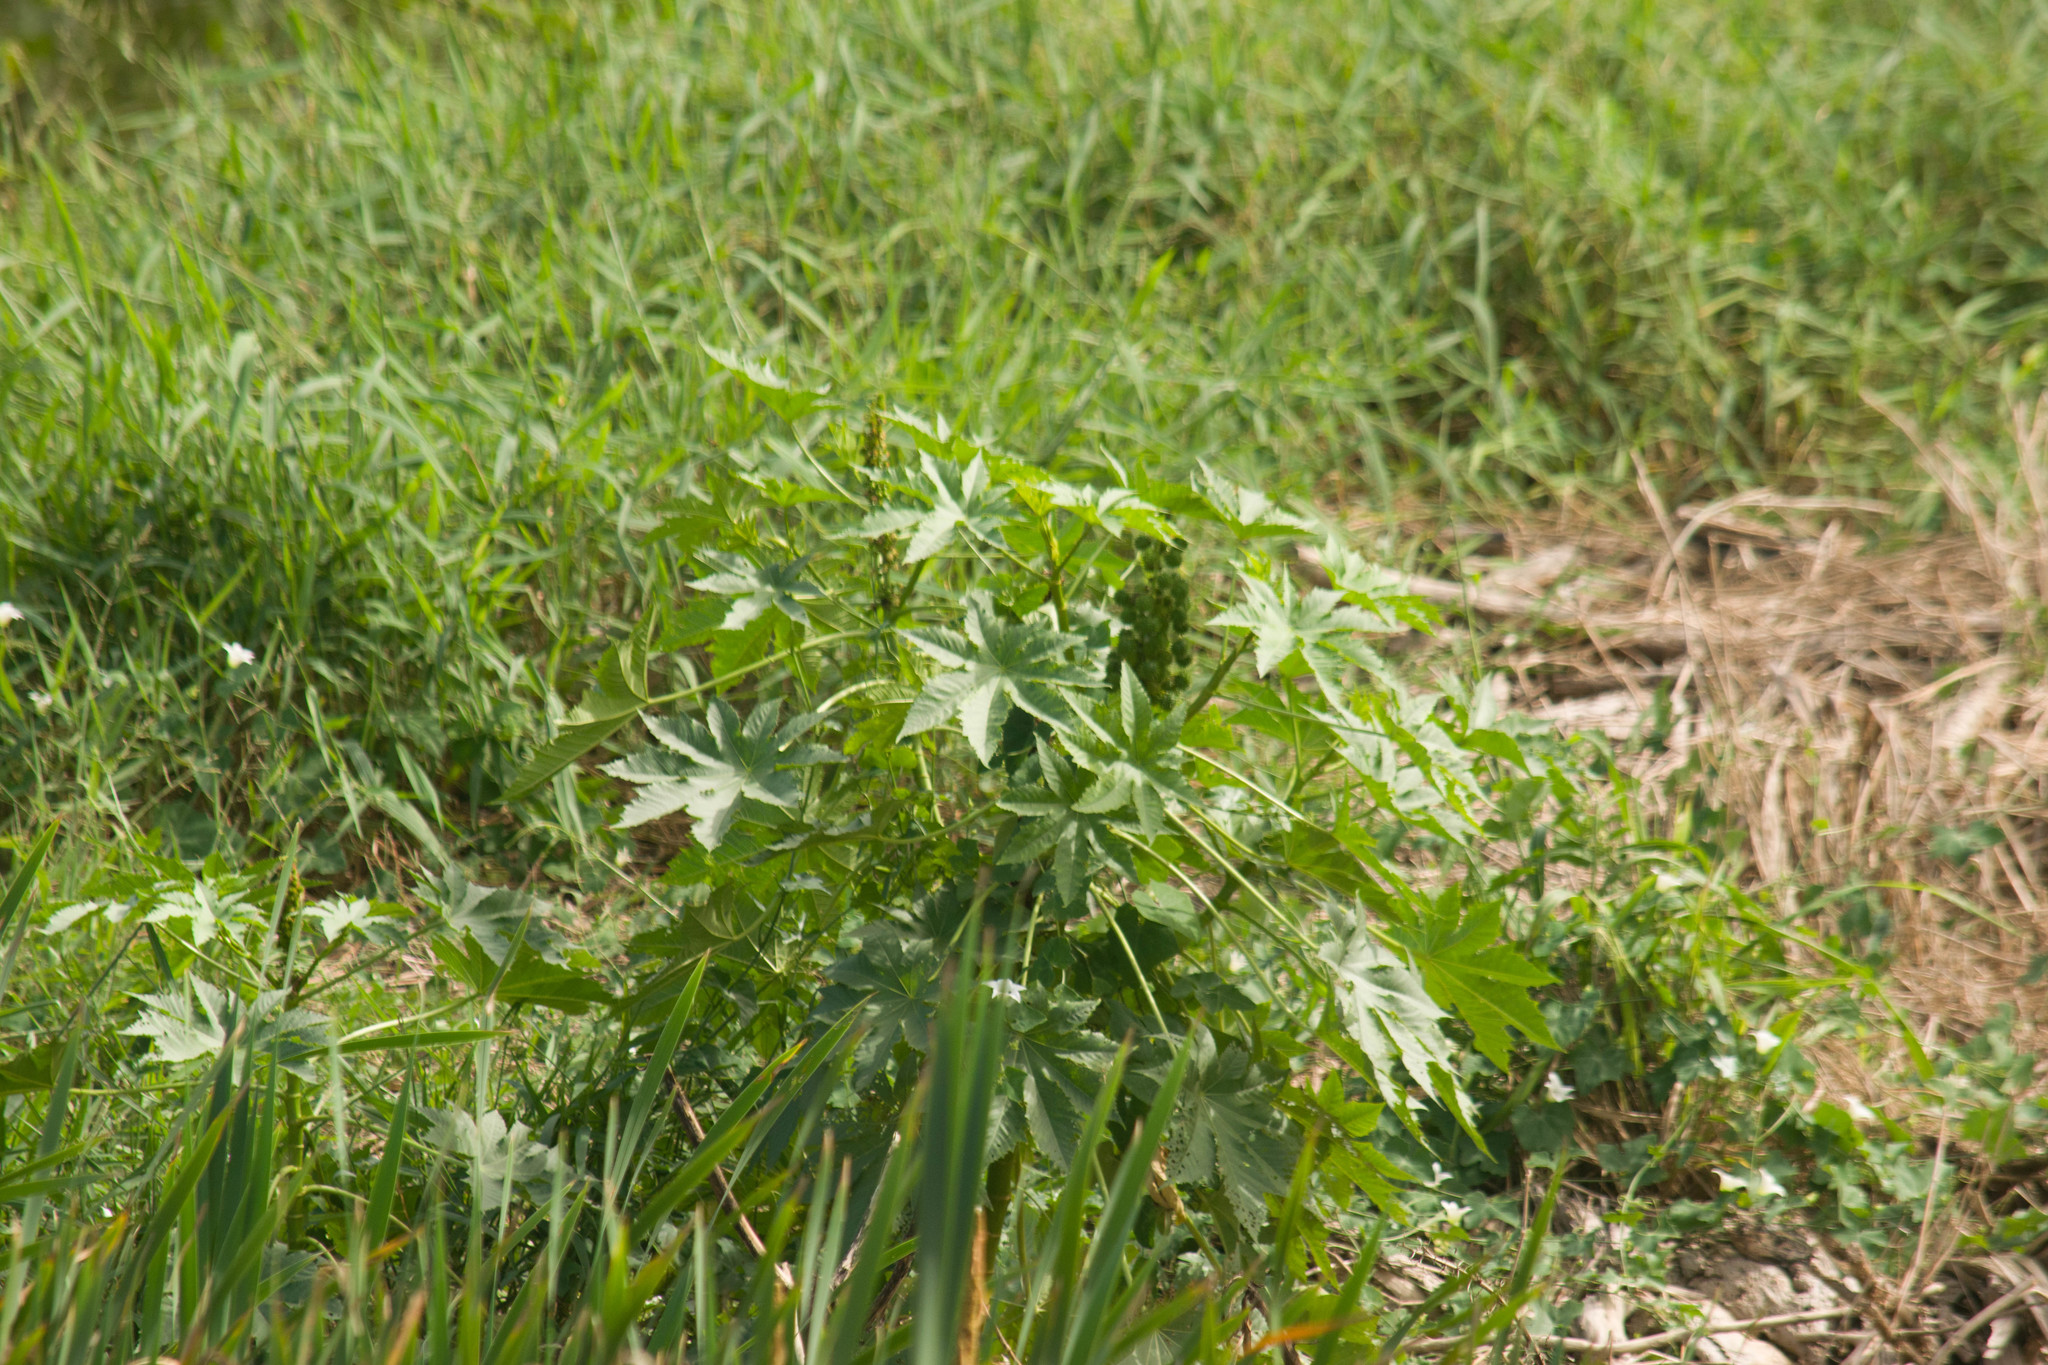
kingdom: Plantae
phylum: Tracheophyta
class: Magnoliopsida
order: Malpighiales
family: Euphorbiaceae
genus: Ricinus
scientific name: Ricinus communis
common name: Castor-oil-plant
